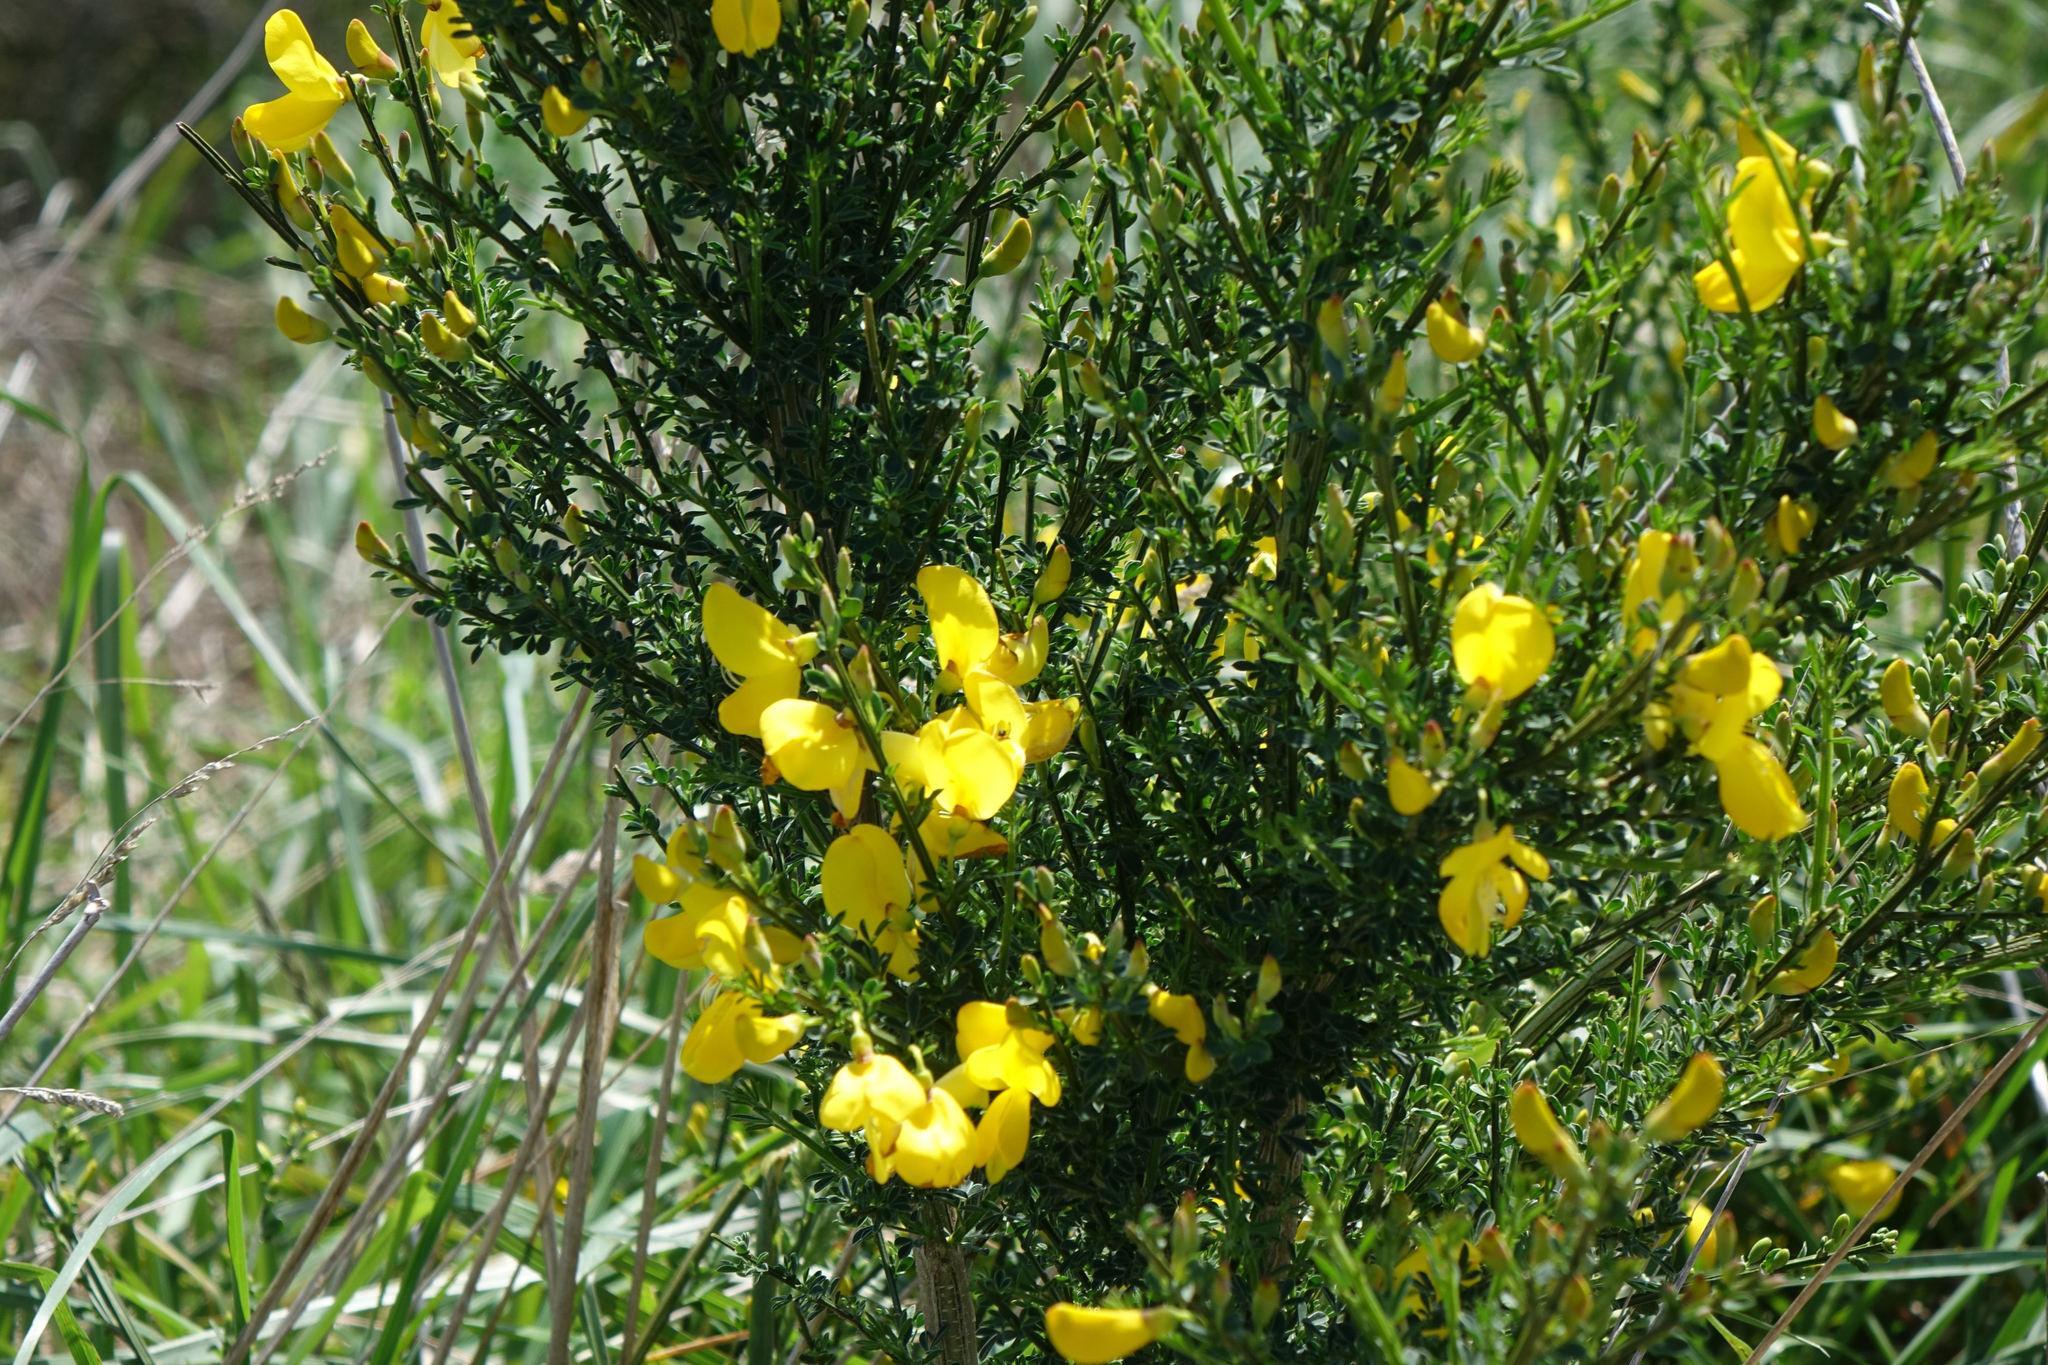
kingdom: Plantae
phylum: Tracheophyta
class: Magnoliopsida
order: Fabales
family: Fabaceae
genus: Cytisus
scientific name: Cytisus scoparius
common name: Scotch broom
